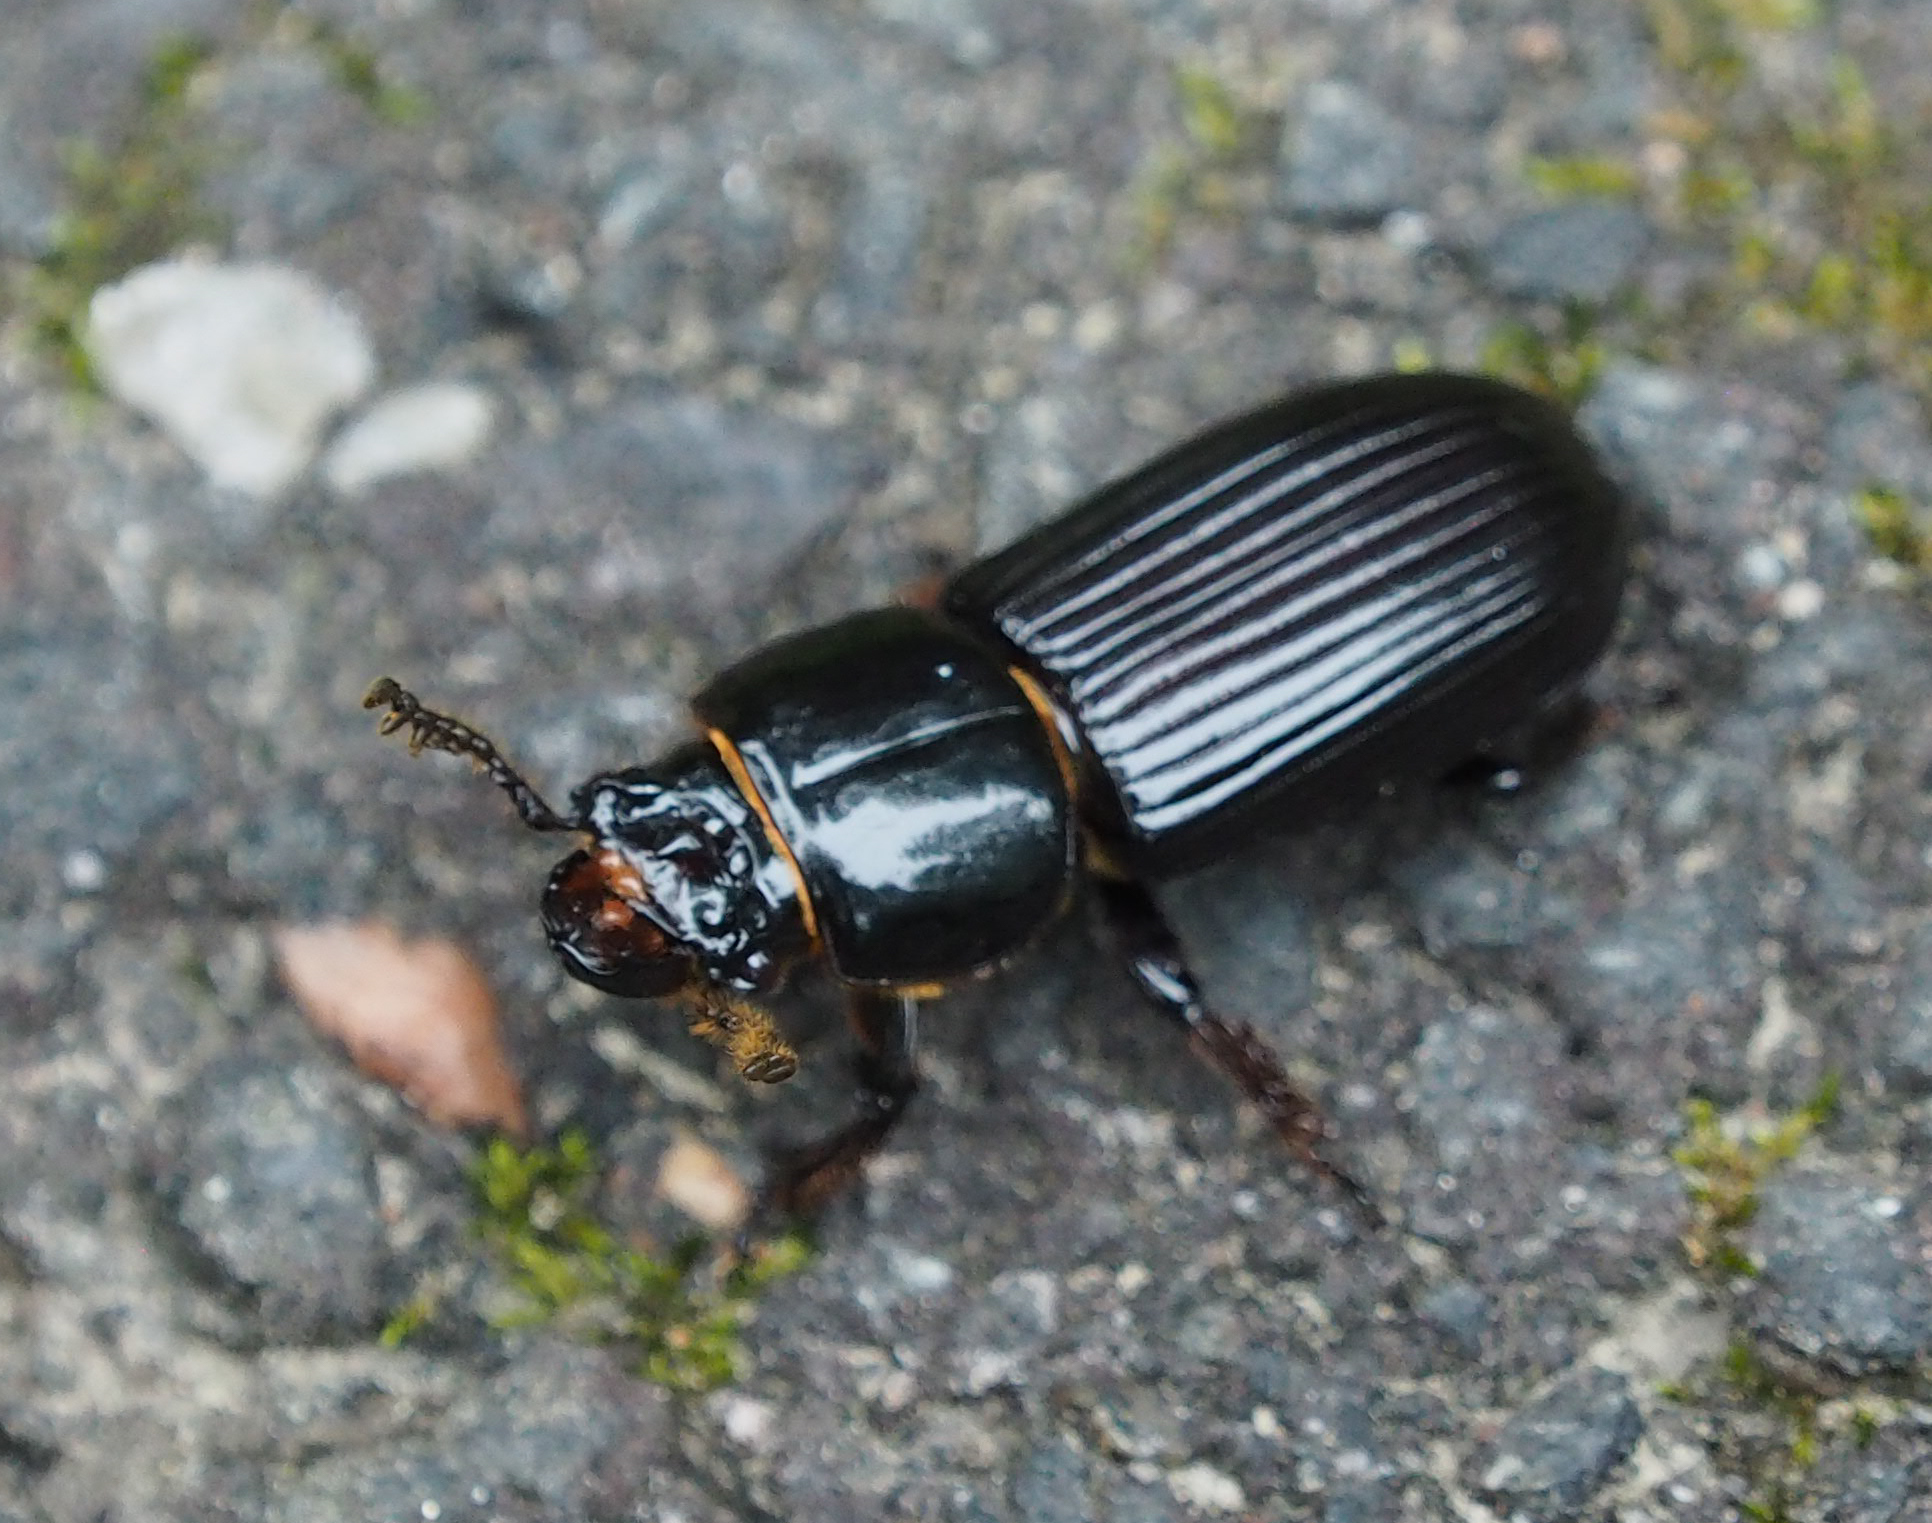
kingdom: Animalia
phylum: Arthropoda
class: Insecta
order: Coleoptera
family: Passalidae
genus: Odontotaenius
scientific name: Odontotaenius disjunctus
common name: Patent leather beetle
